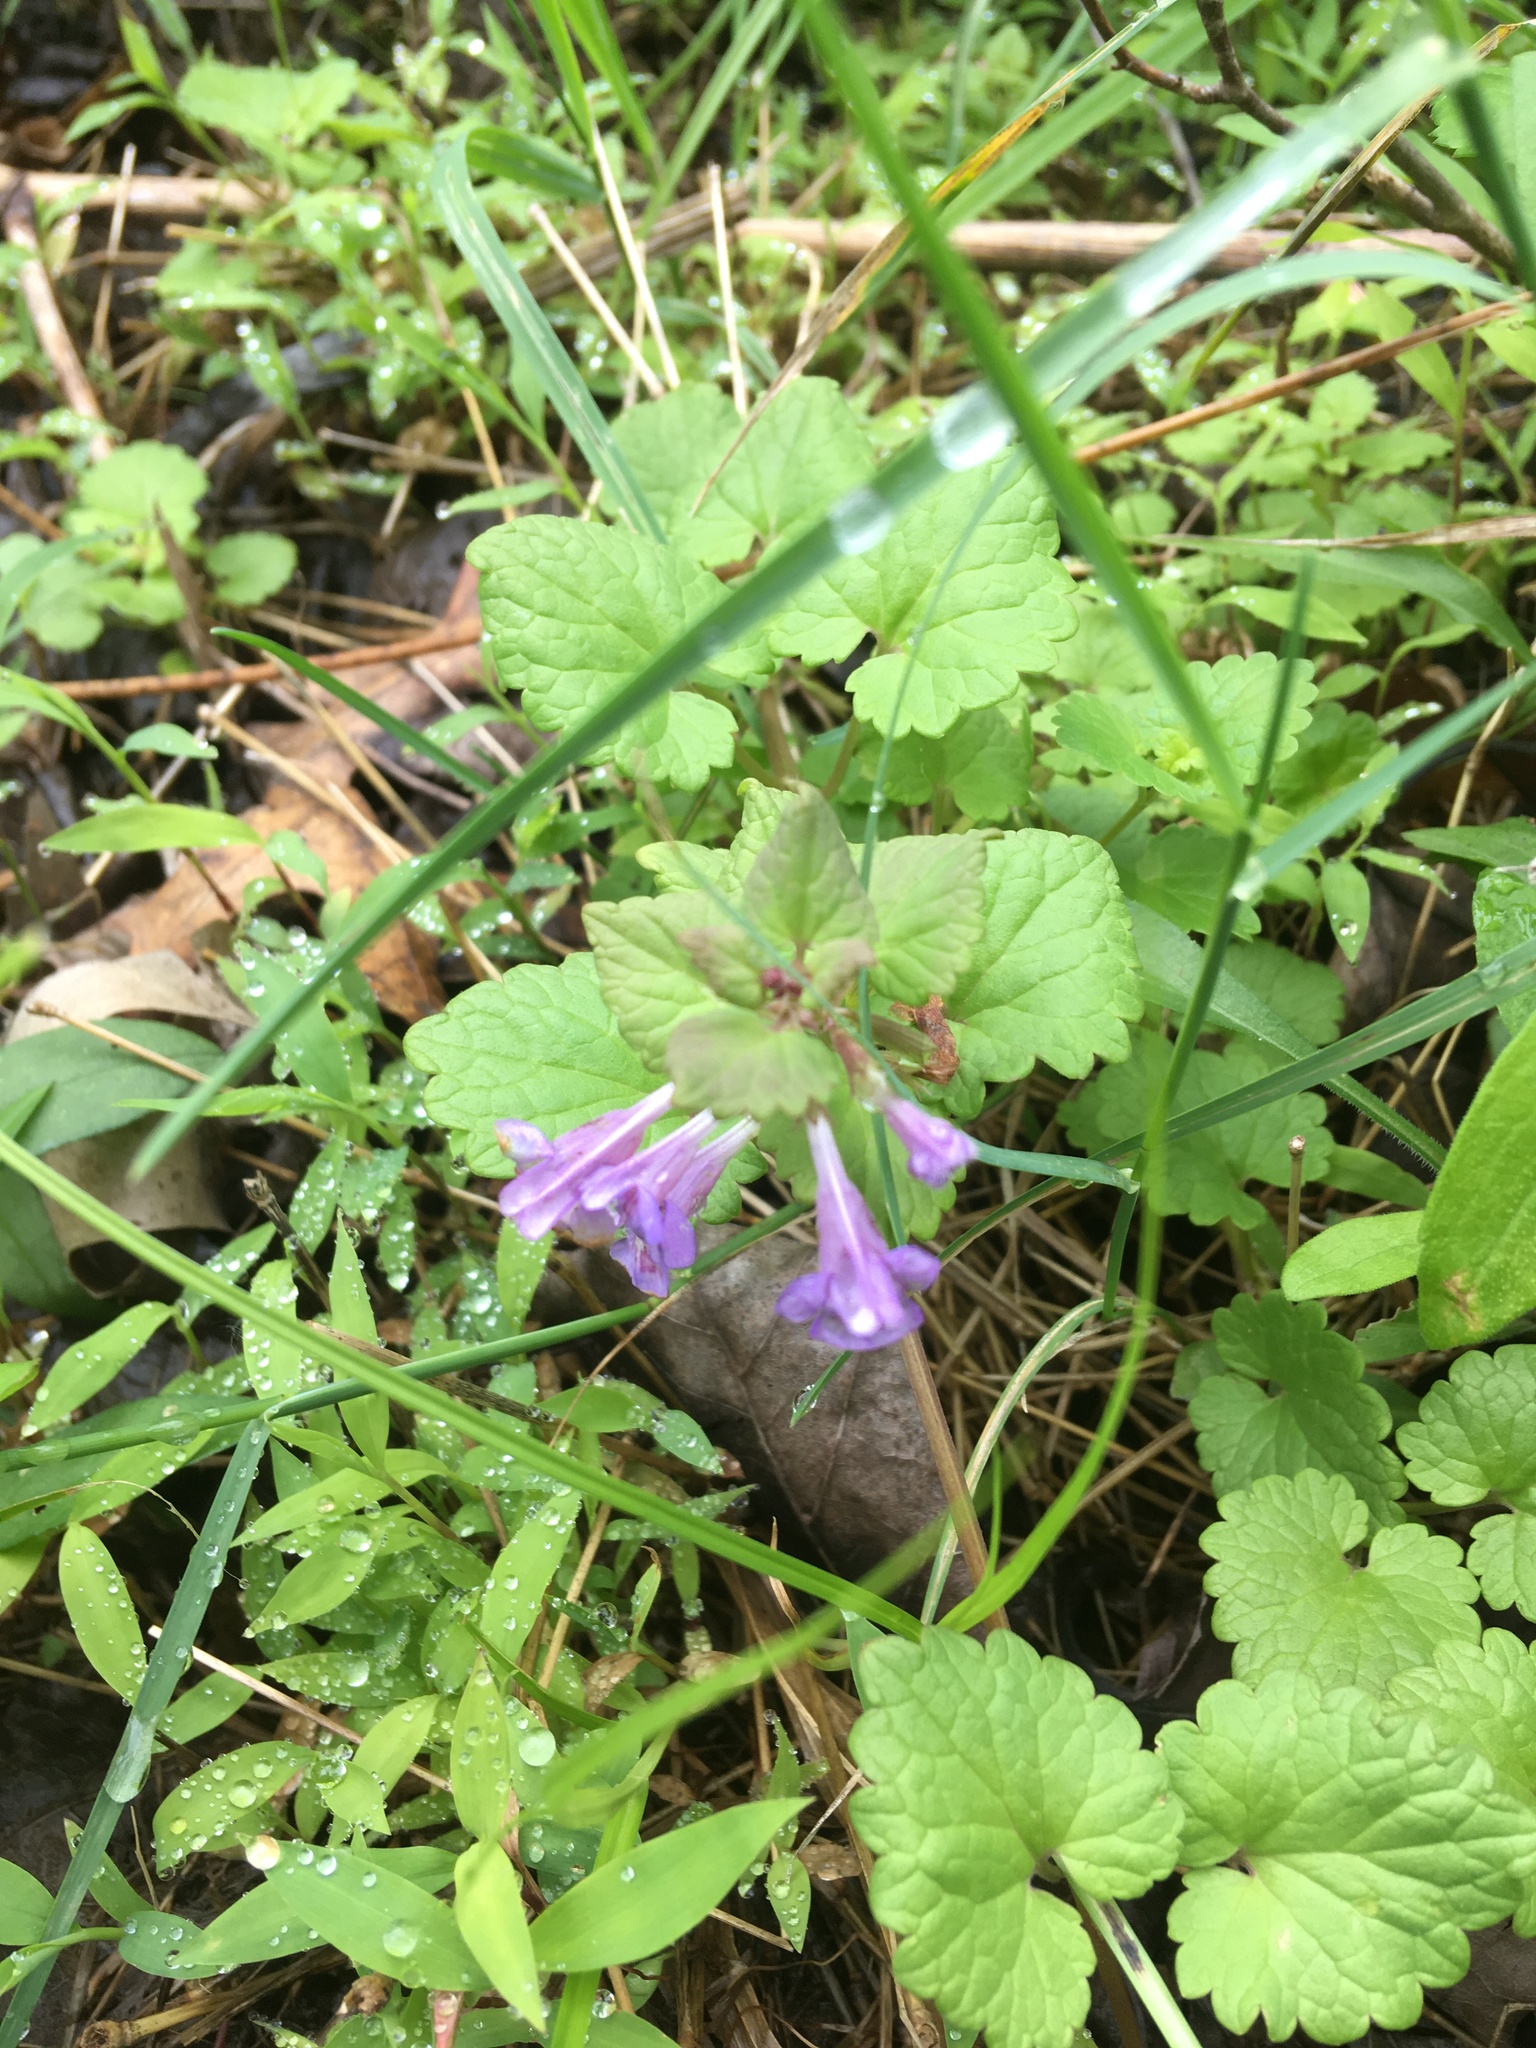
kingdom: Plantae
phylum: Tracheophyta
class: Magnoliopsida
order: Lamiales
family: Lamiaceae
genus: Glechoma
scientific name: Glechoma hederacea
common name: Ground ivy
